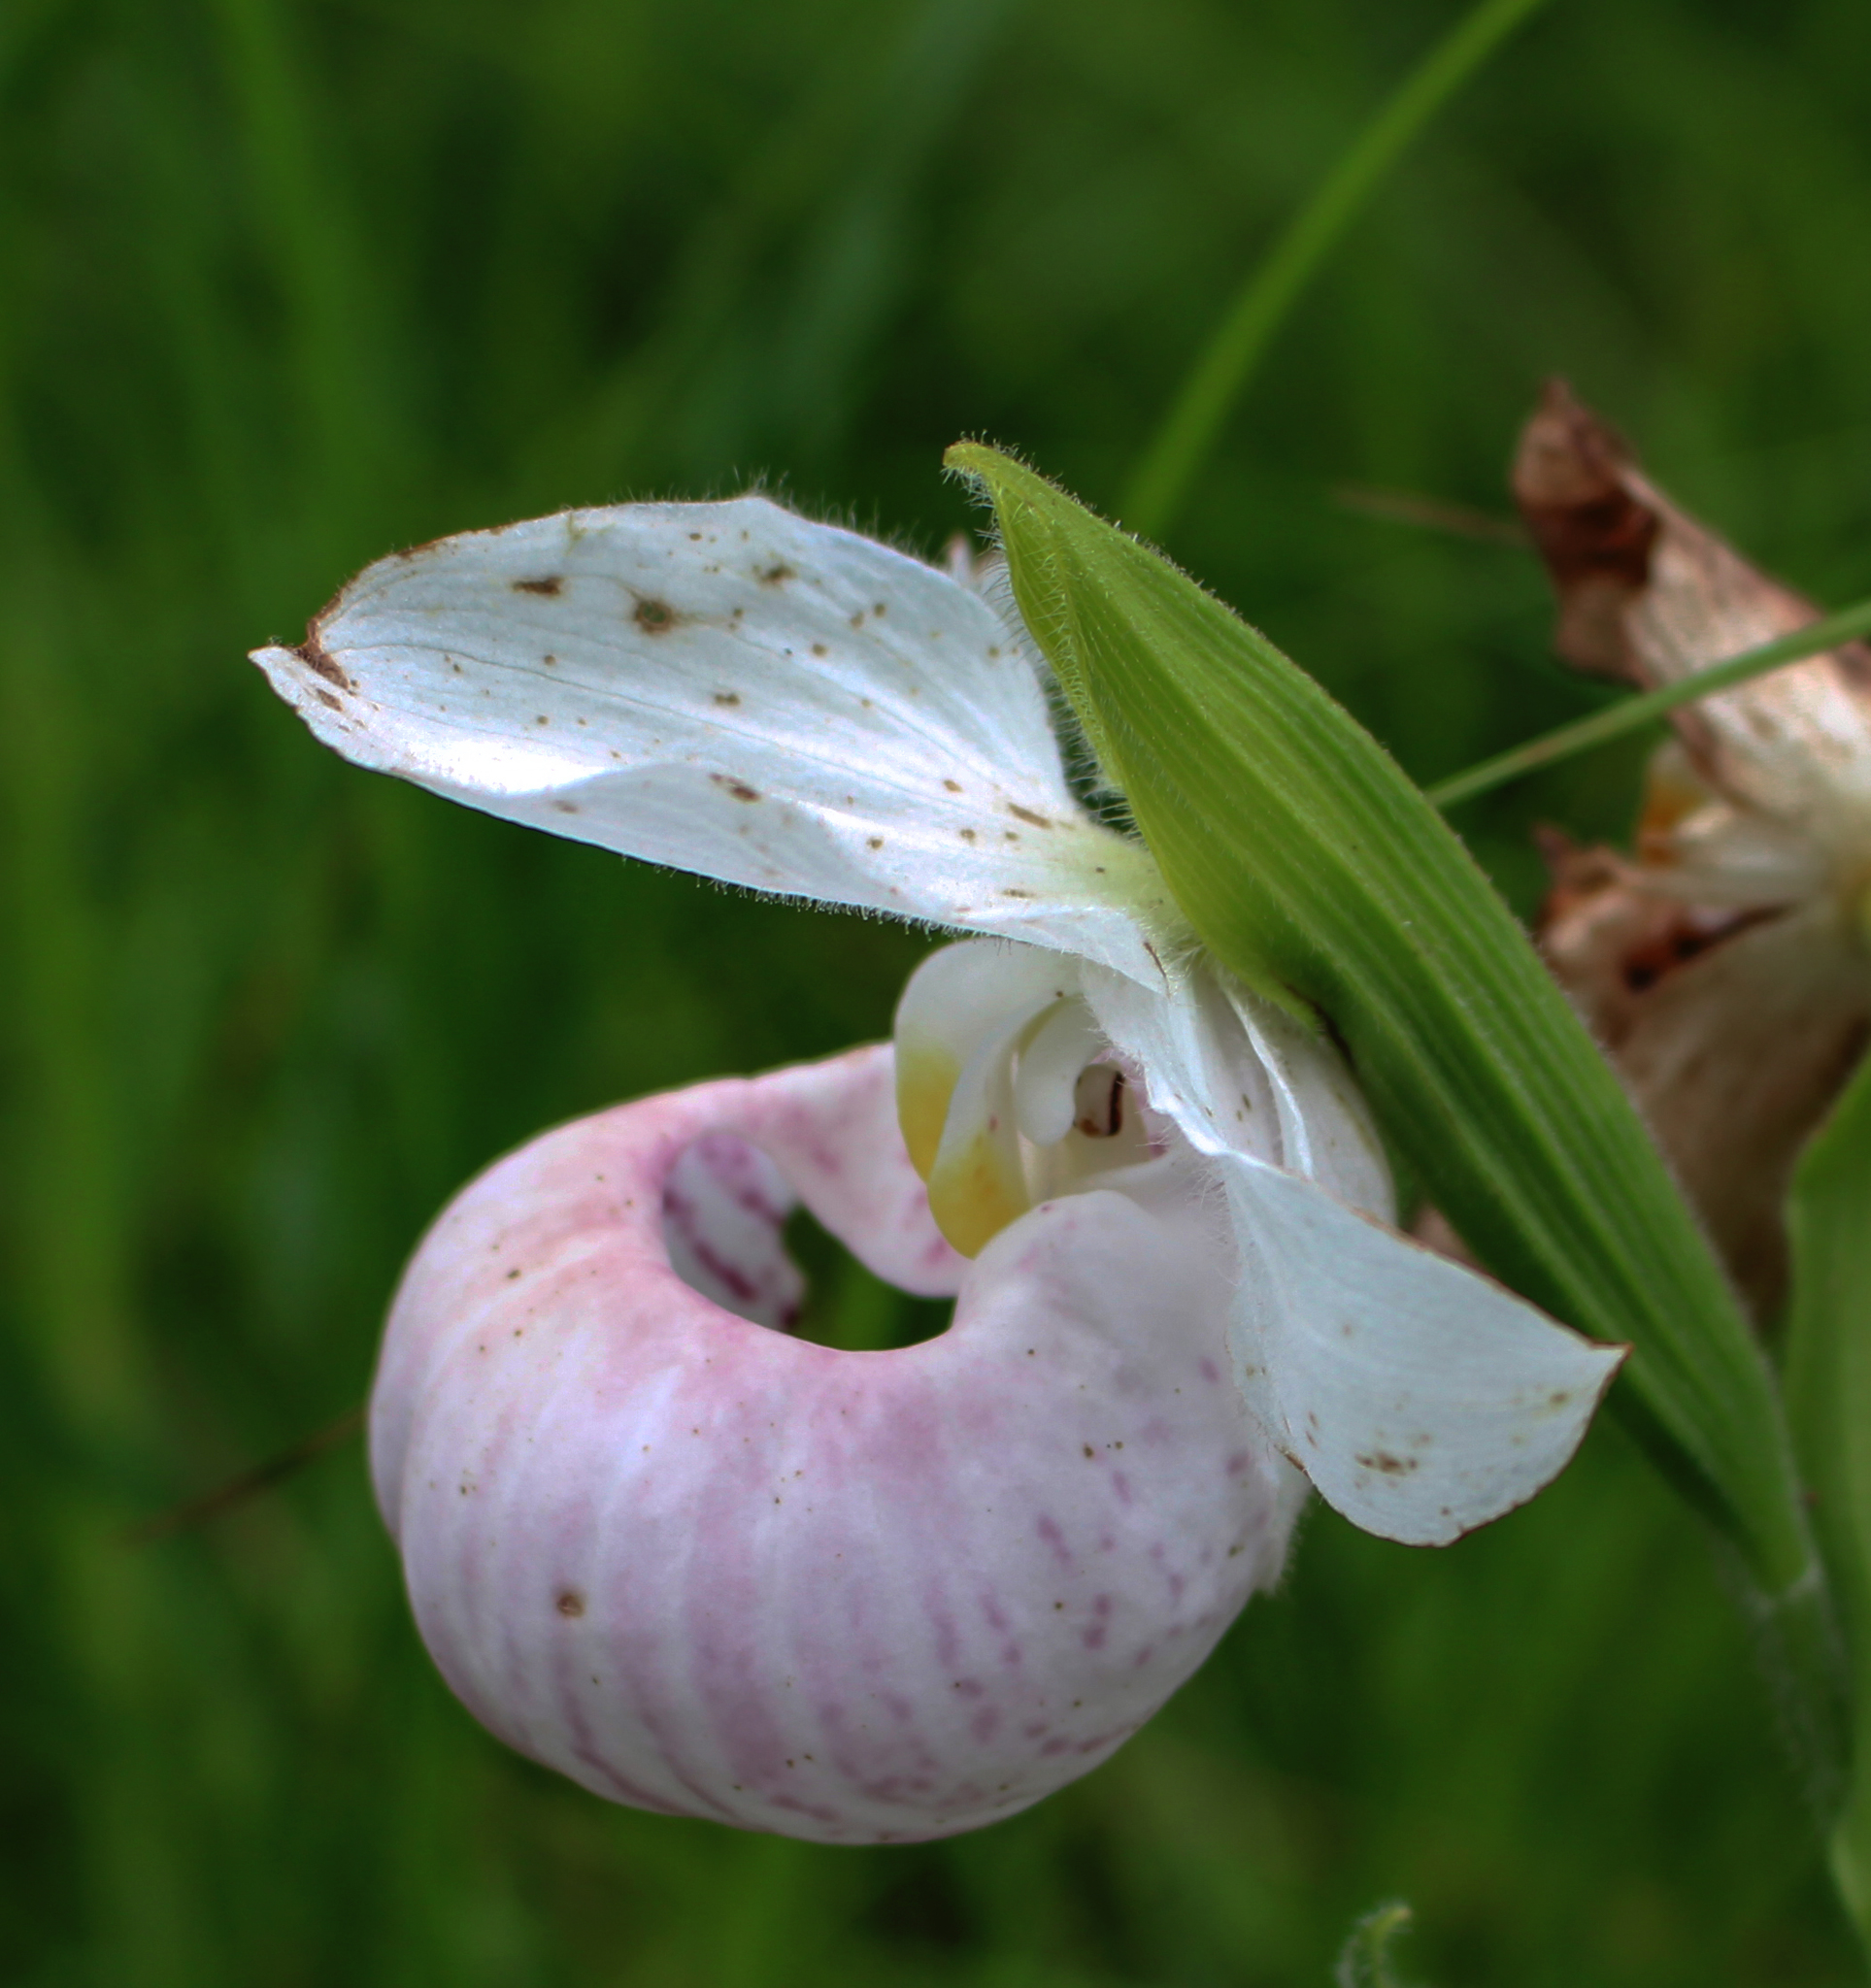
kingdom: Plantae
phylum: Tracheophyta
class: Liliopsida
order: Asparagales
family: Orchidaceae
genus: Cypripedium
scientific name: Cypripedium reginae
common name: Queen lady's-slipper
